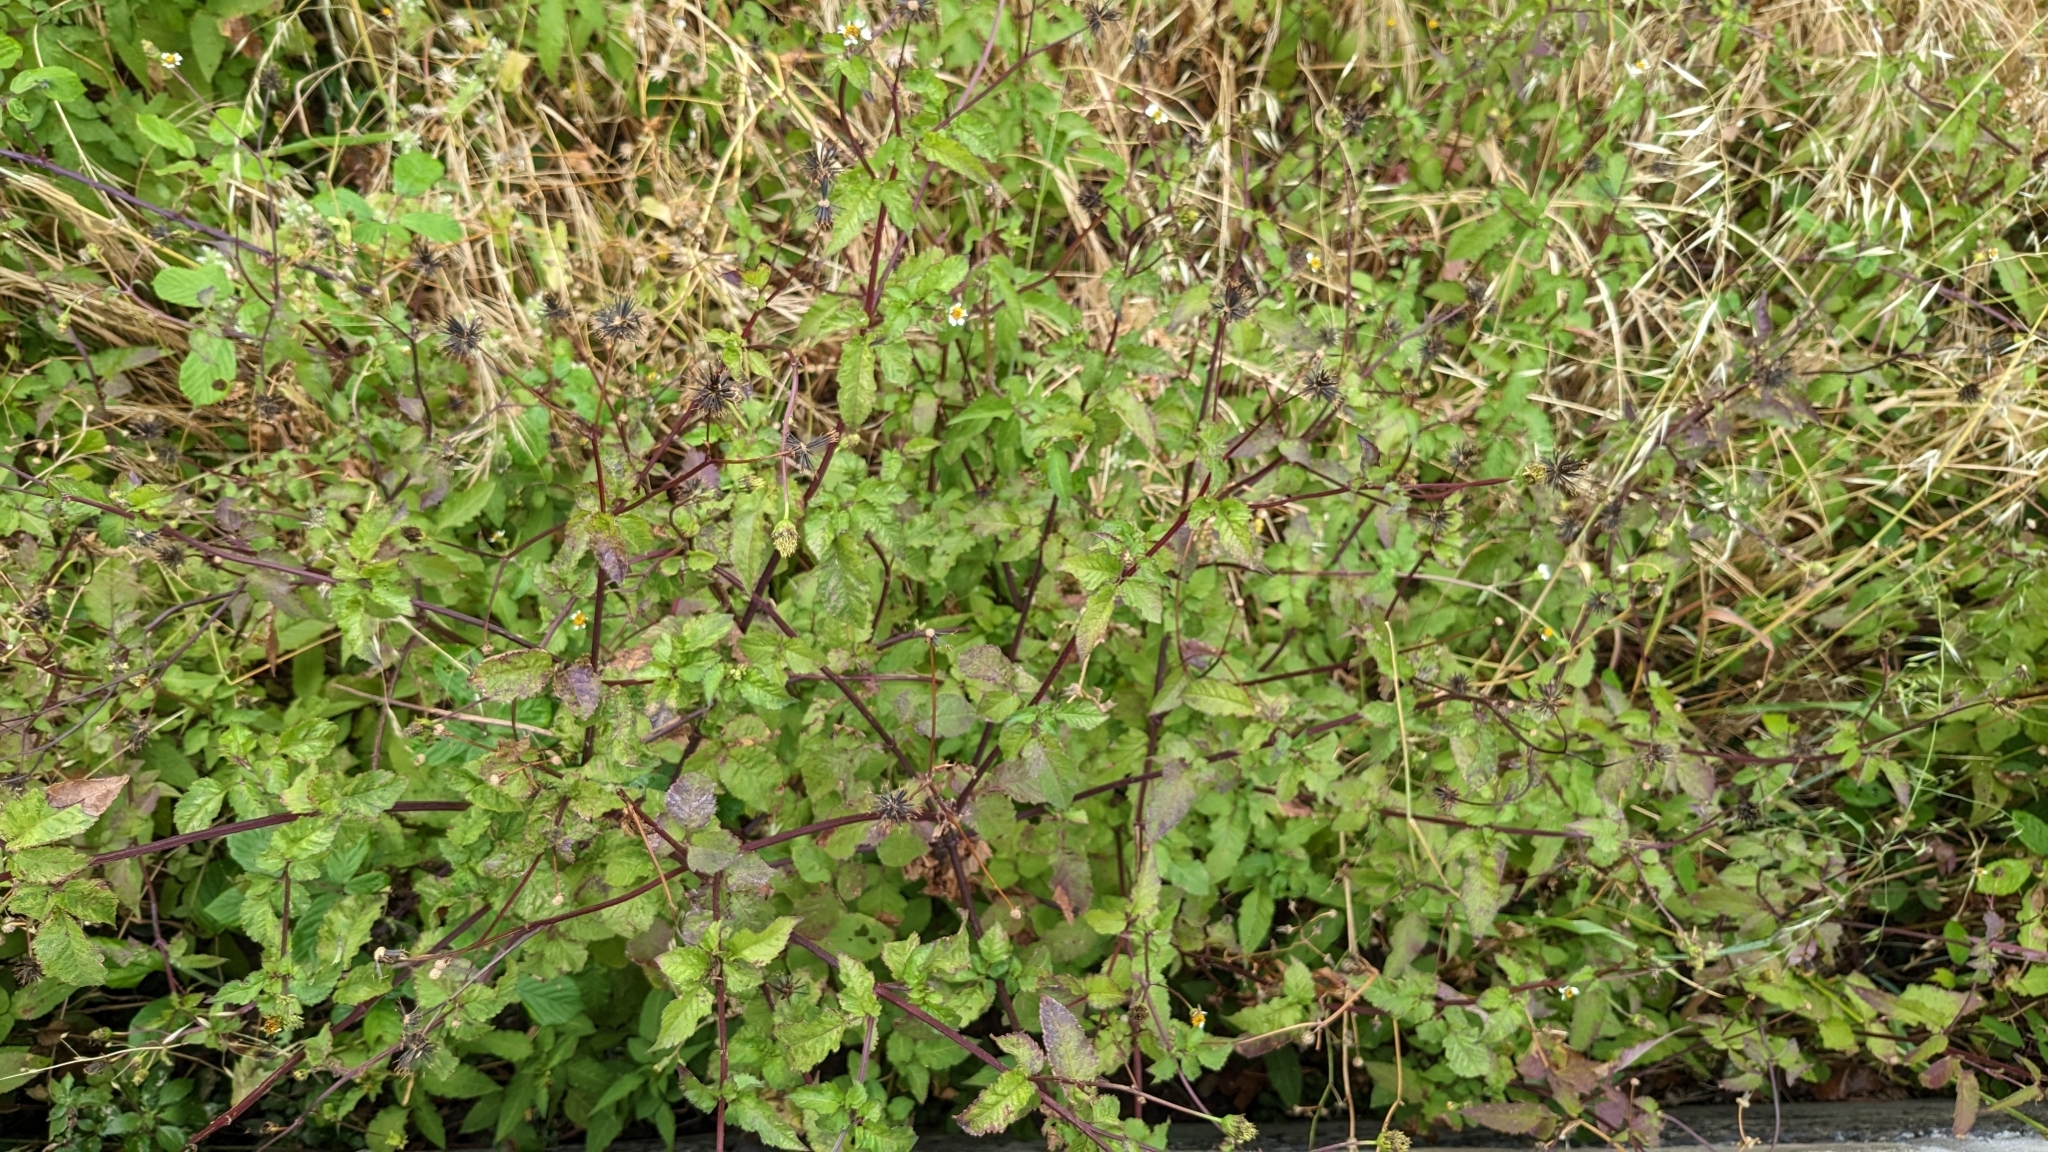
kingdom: Plantae
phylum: Tracheophyta
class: Magnoliopsida
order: Asterales
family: Asteraceae
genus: Bidens
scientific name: Bidens pilosa
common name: Black-jack
